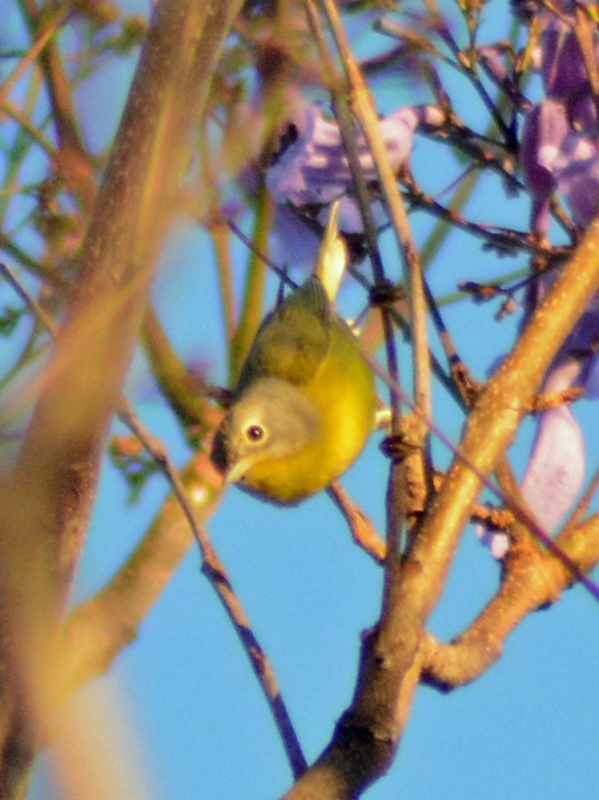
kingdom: Animalia
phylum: Chordata
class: Aves
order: Passeriformes
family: Parulidae
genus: Leiothlypis
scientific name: Leiothlypis ruficapilla
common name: Nashville warbler
